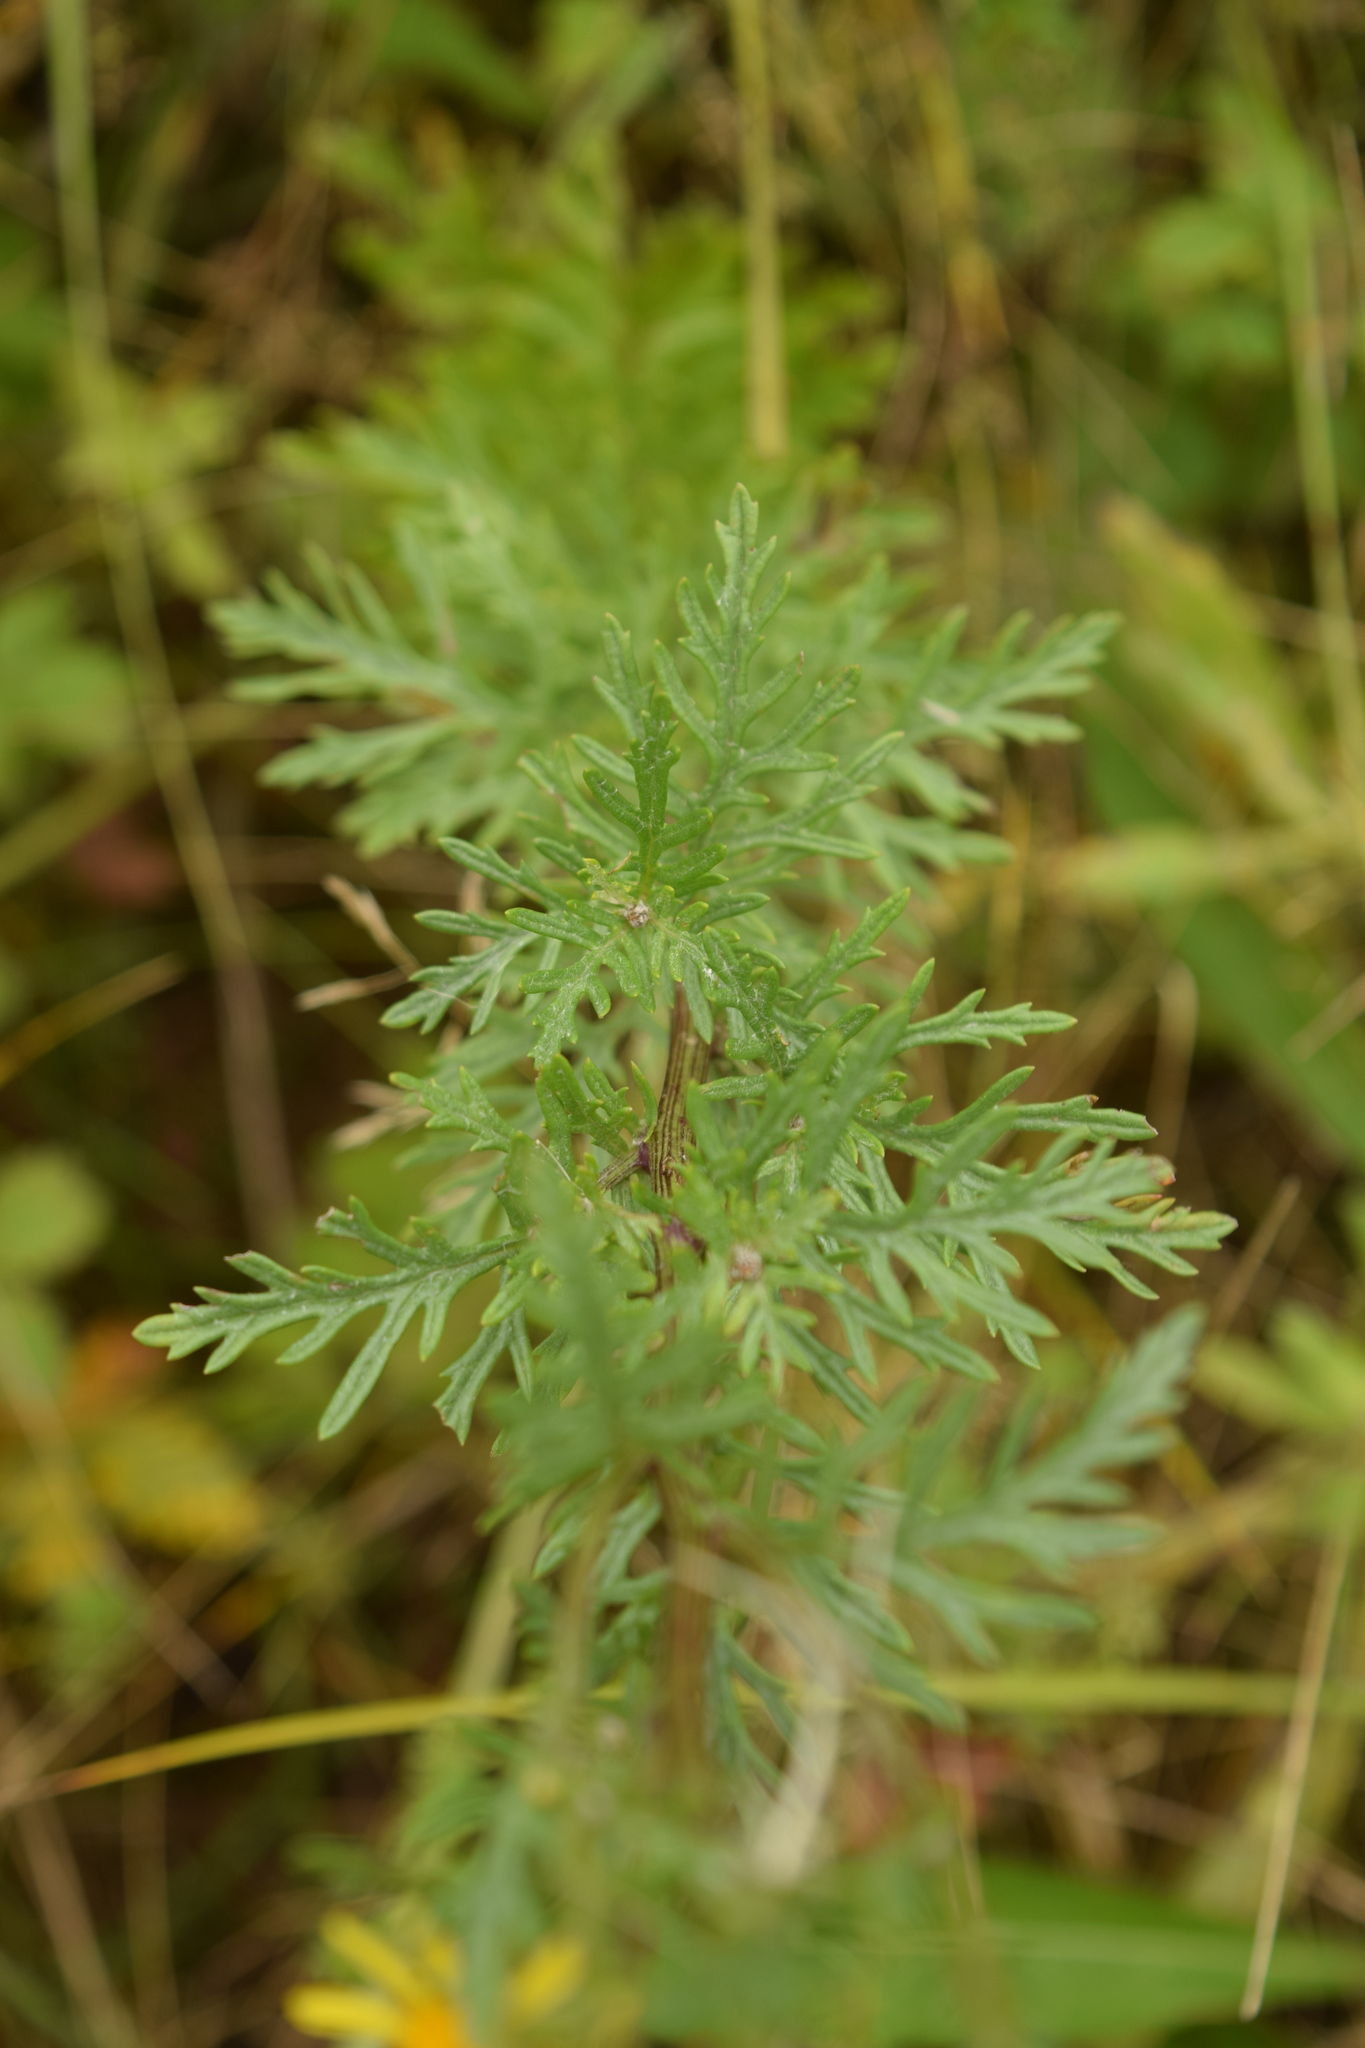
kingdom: Plantae
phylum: Tracheophyta
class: Magnoliopsida
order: Asterales
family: Asteraceae
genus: Jacobaea
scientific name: Jacobaea vulgaris
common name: Stinking willie
